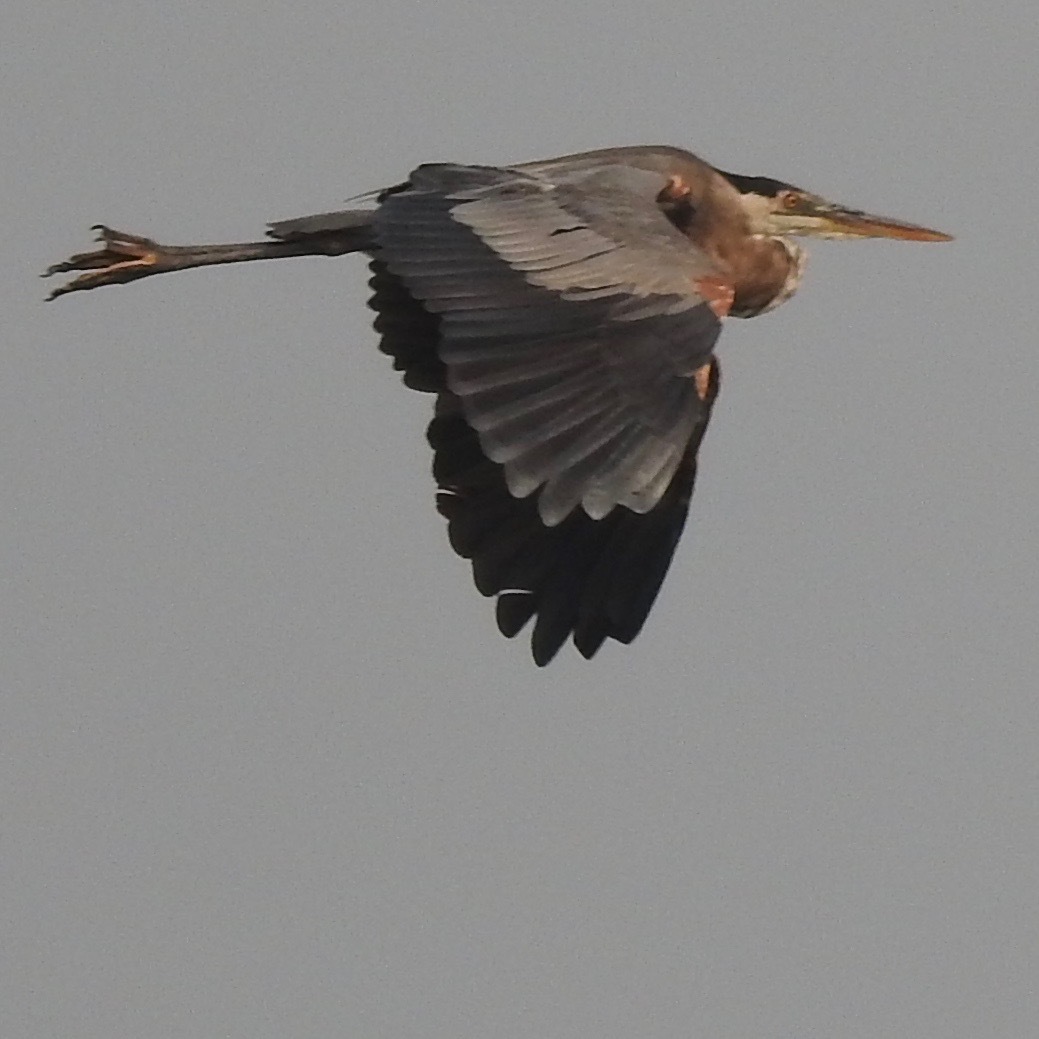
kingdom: Animalia
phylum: Chordata
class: Aves
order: Pelecaniformes
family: Ardeidae
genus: Ardea
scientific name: Ardea herodias
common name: Great blue heron
